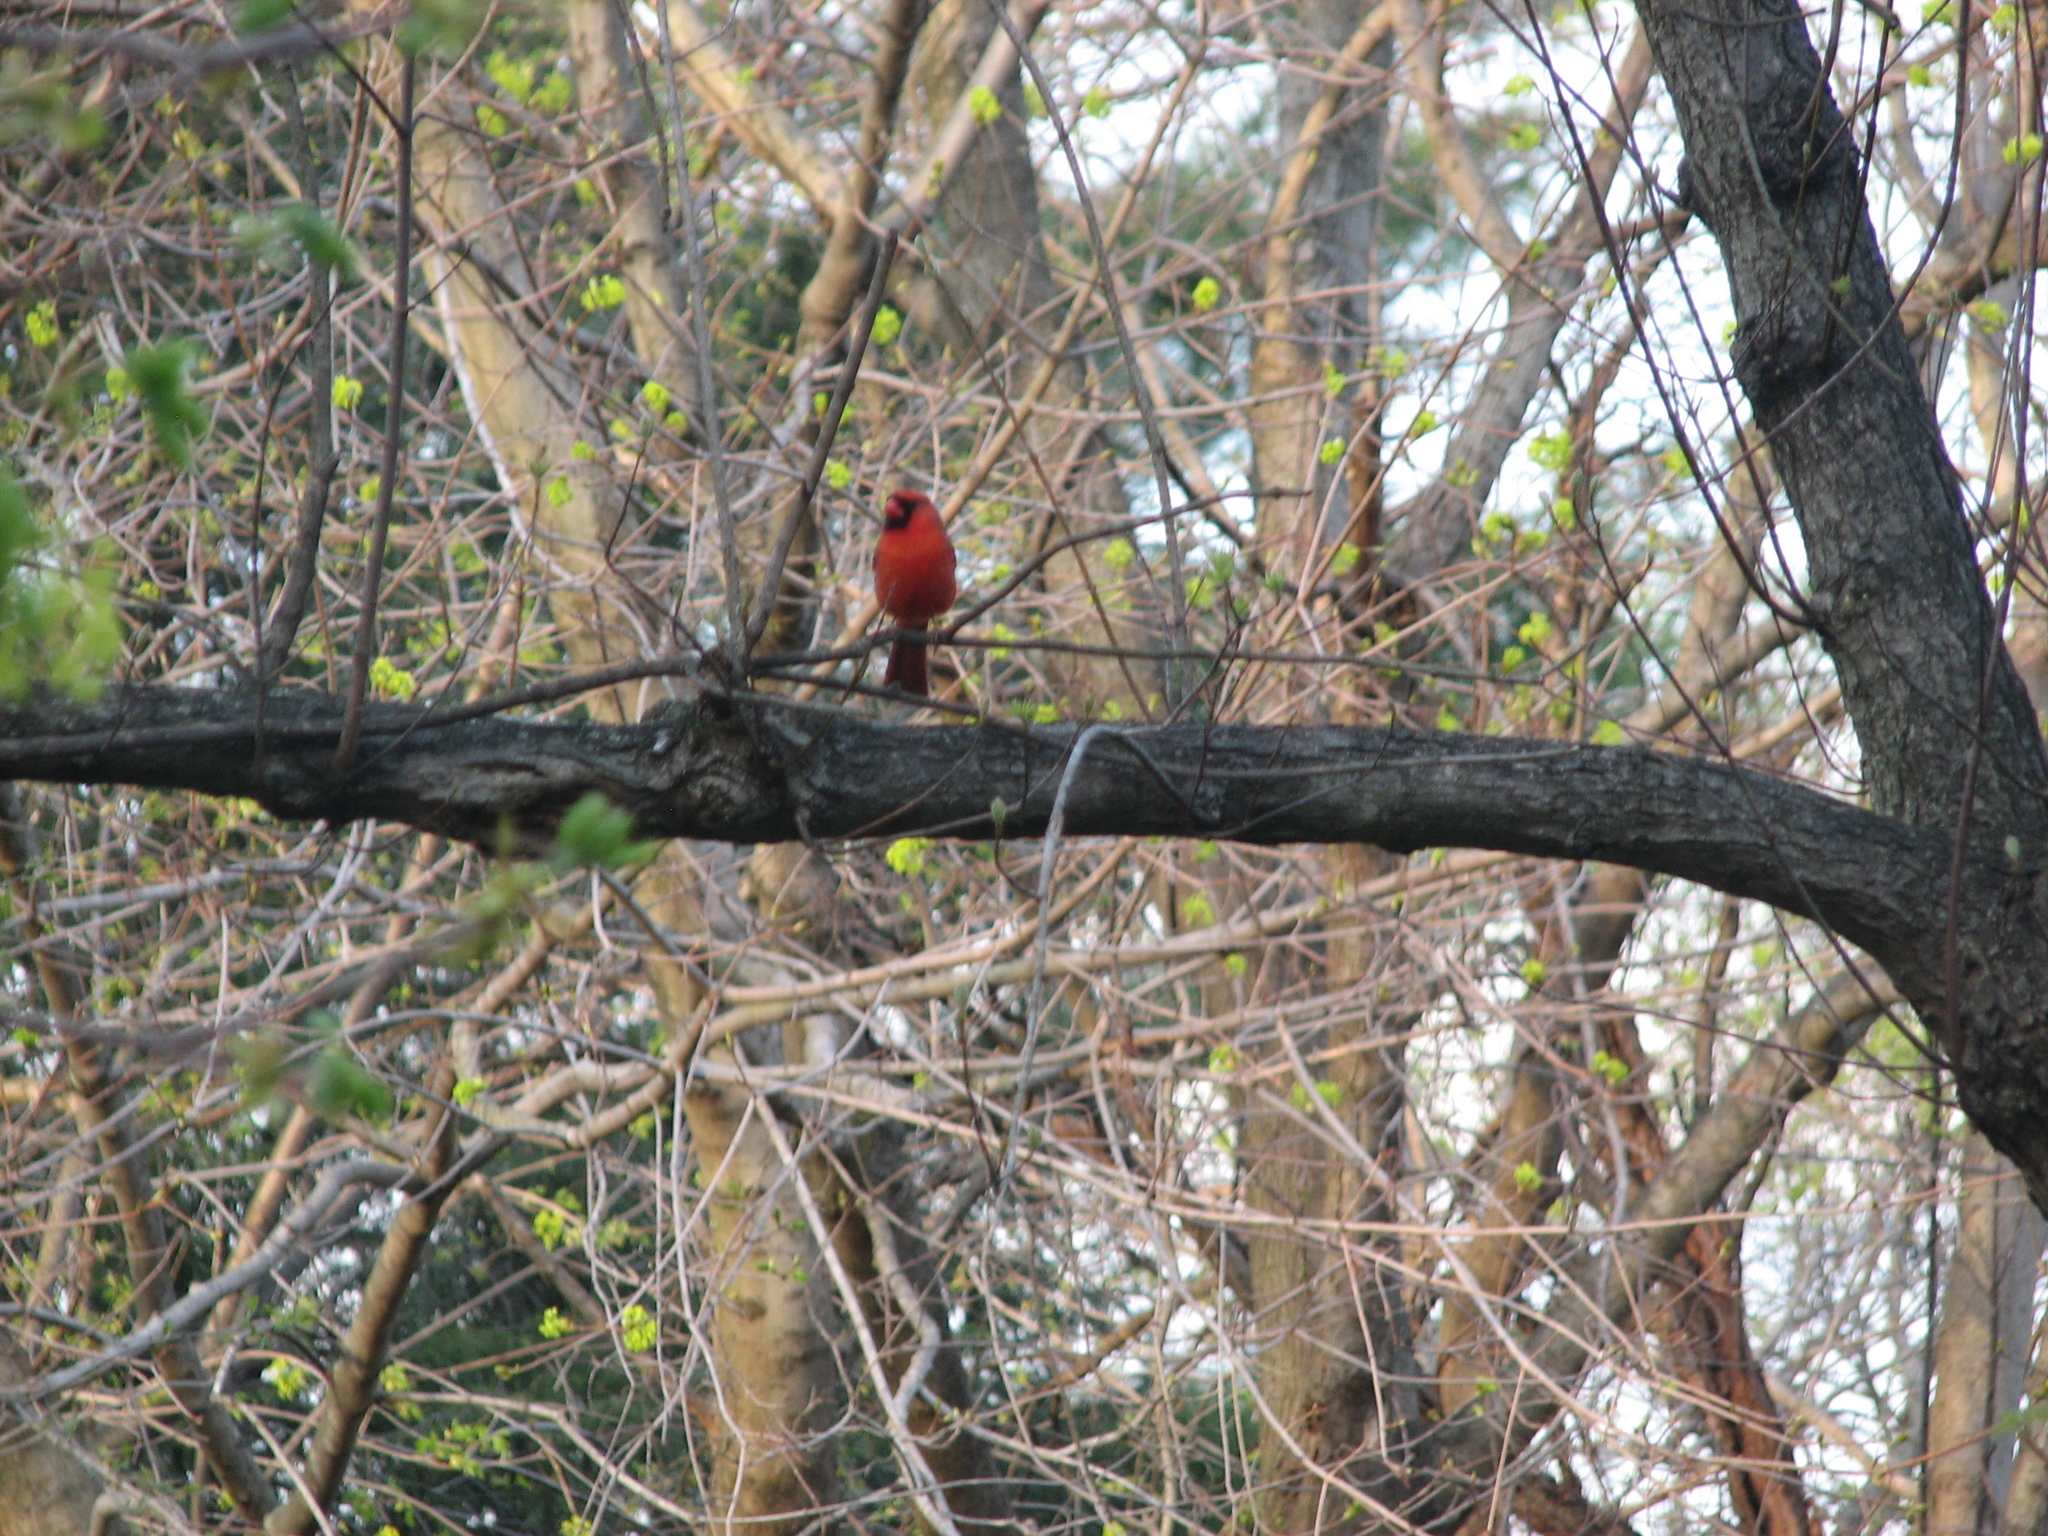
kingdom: Animalia
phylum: Chordata
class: Aves
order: Passeriformes
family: Cardinalidae
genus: Cardinalis
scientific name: Cardinalis cardinalis
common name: Northern cardinal
